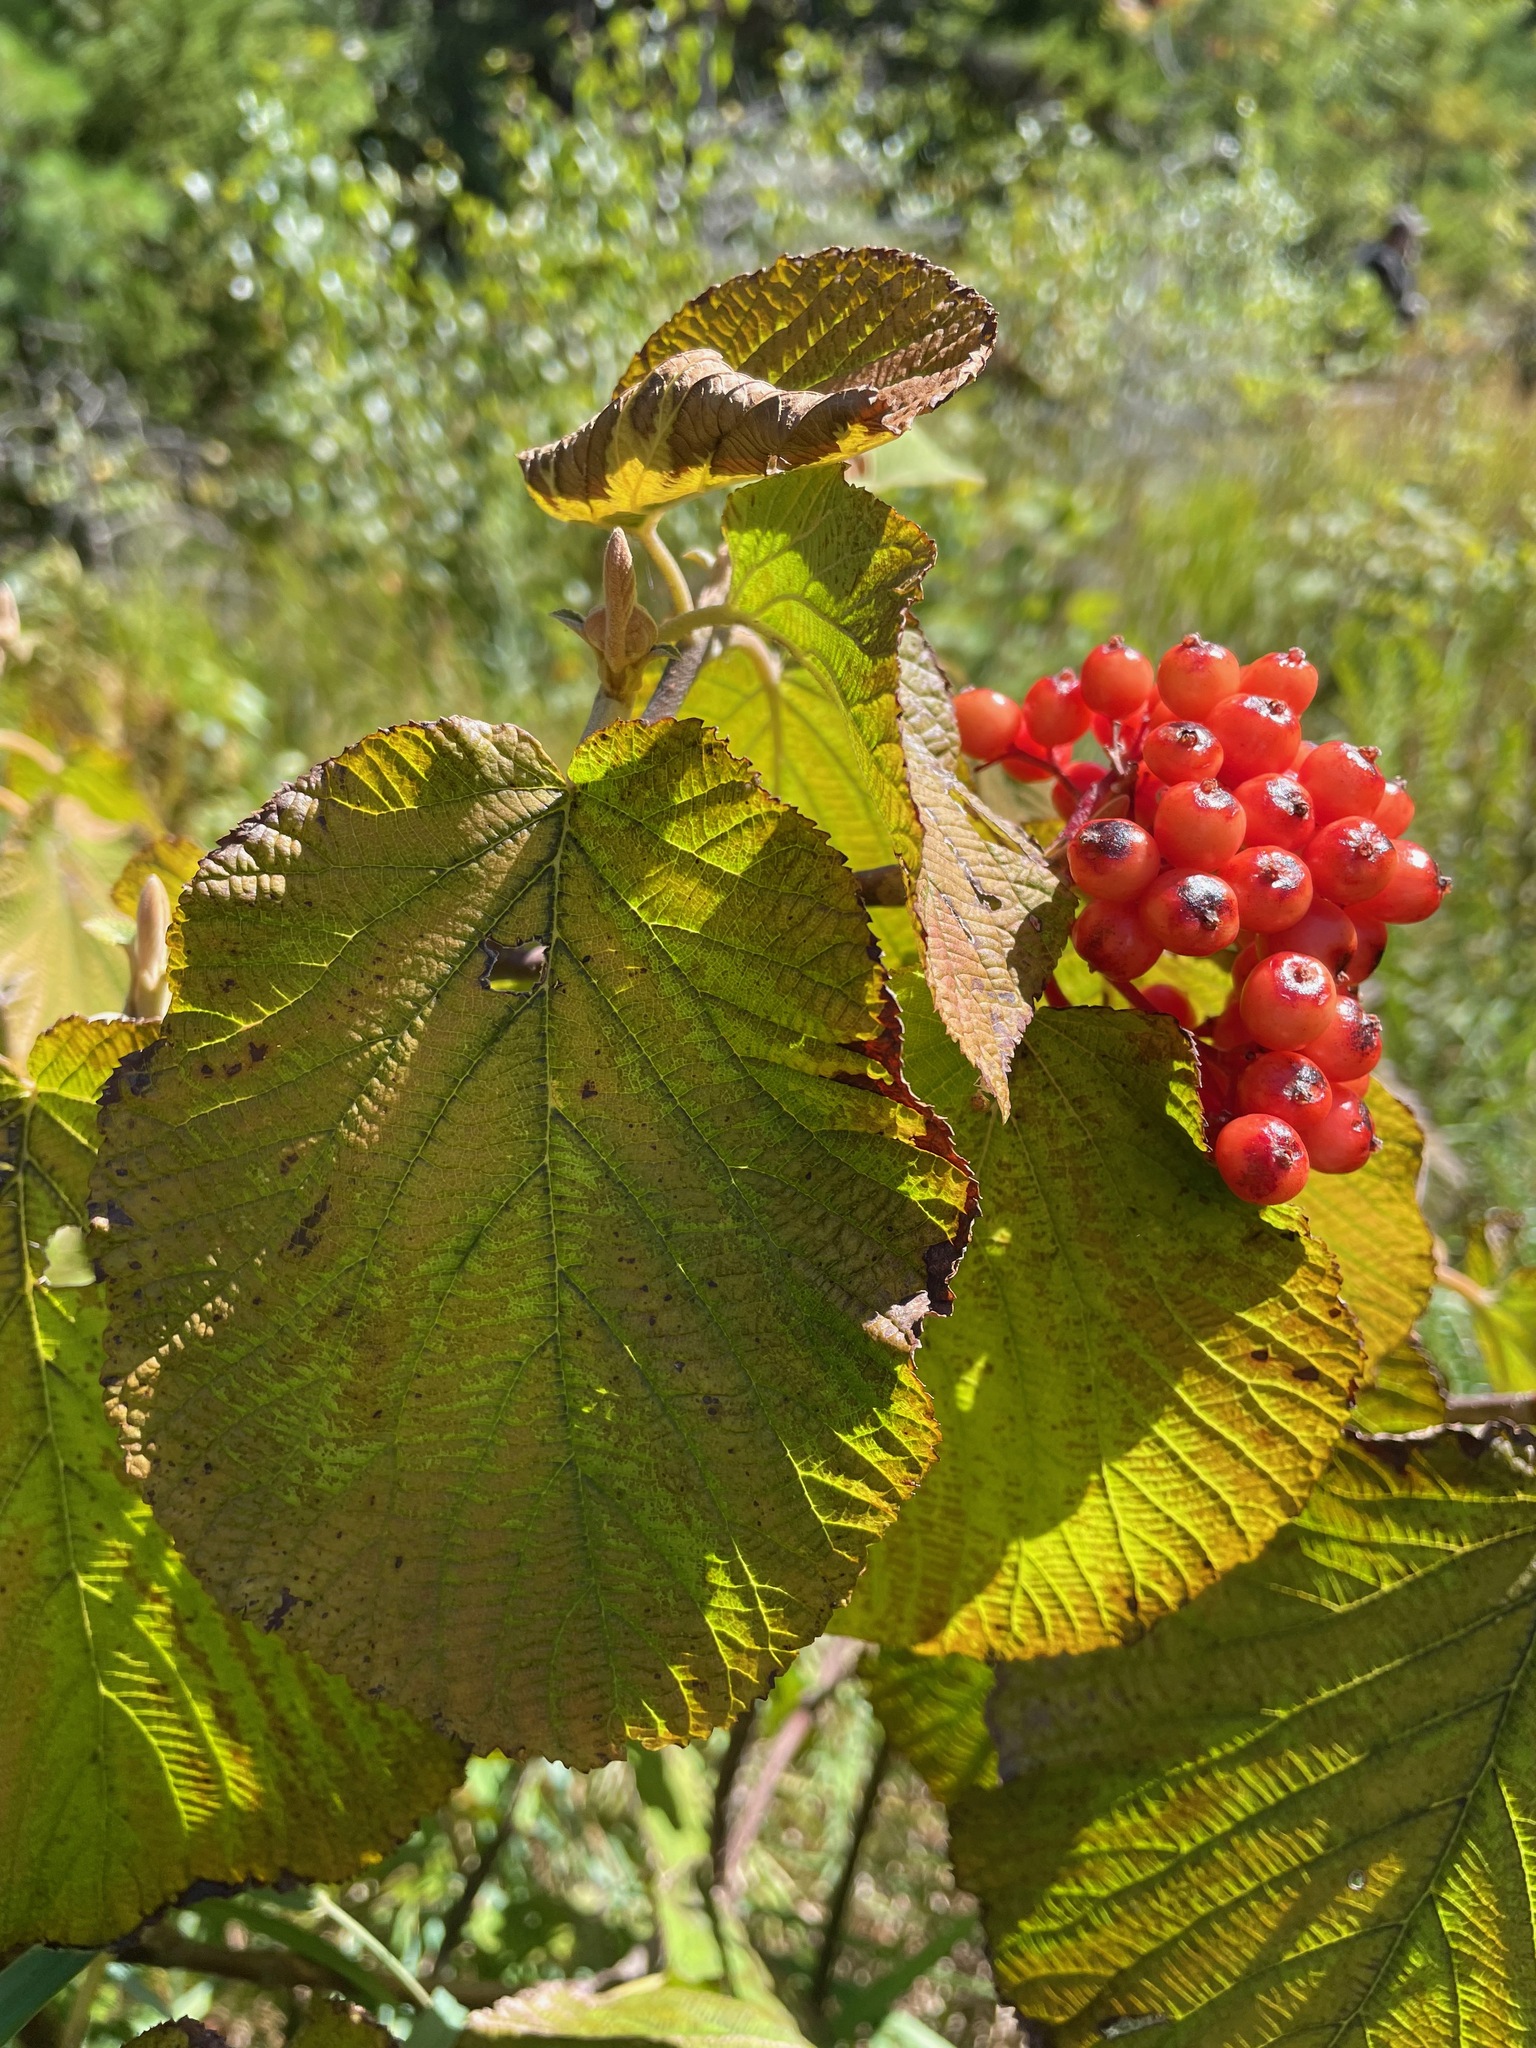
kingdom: Plantae
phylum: Tracheophyta
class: Magnoliopsida
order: Dipsacales
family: Viburnaceae
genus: Viburnum
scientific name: Viburnum lantanoides
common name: Hobblebush
